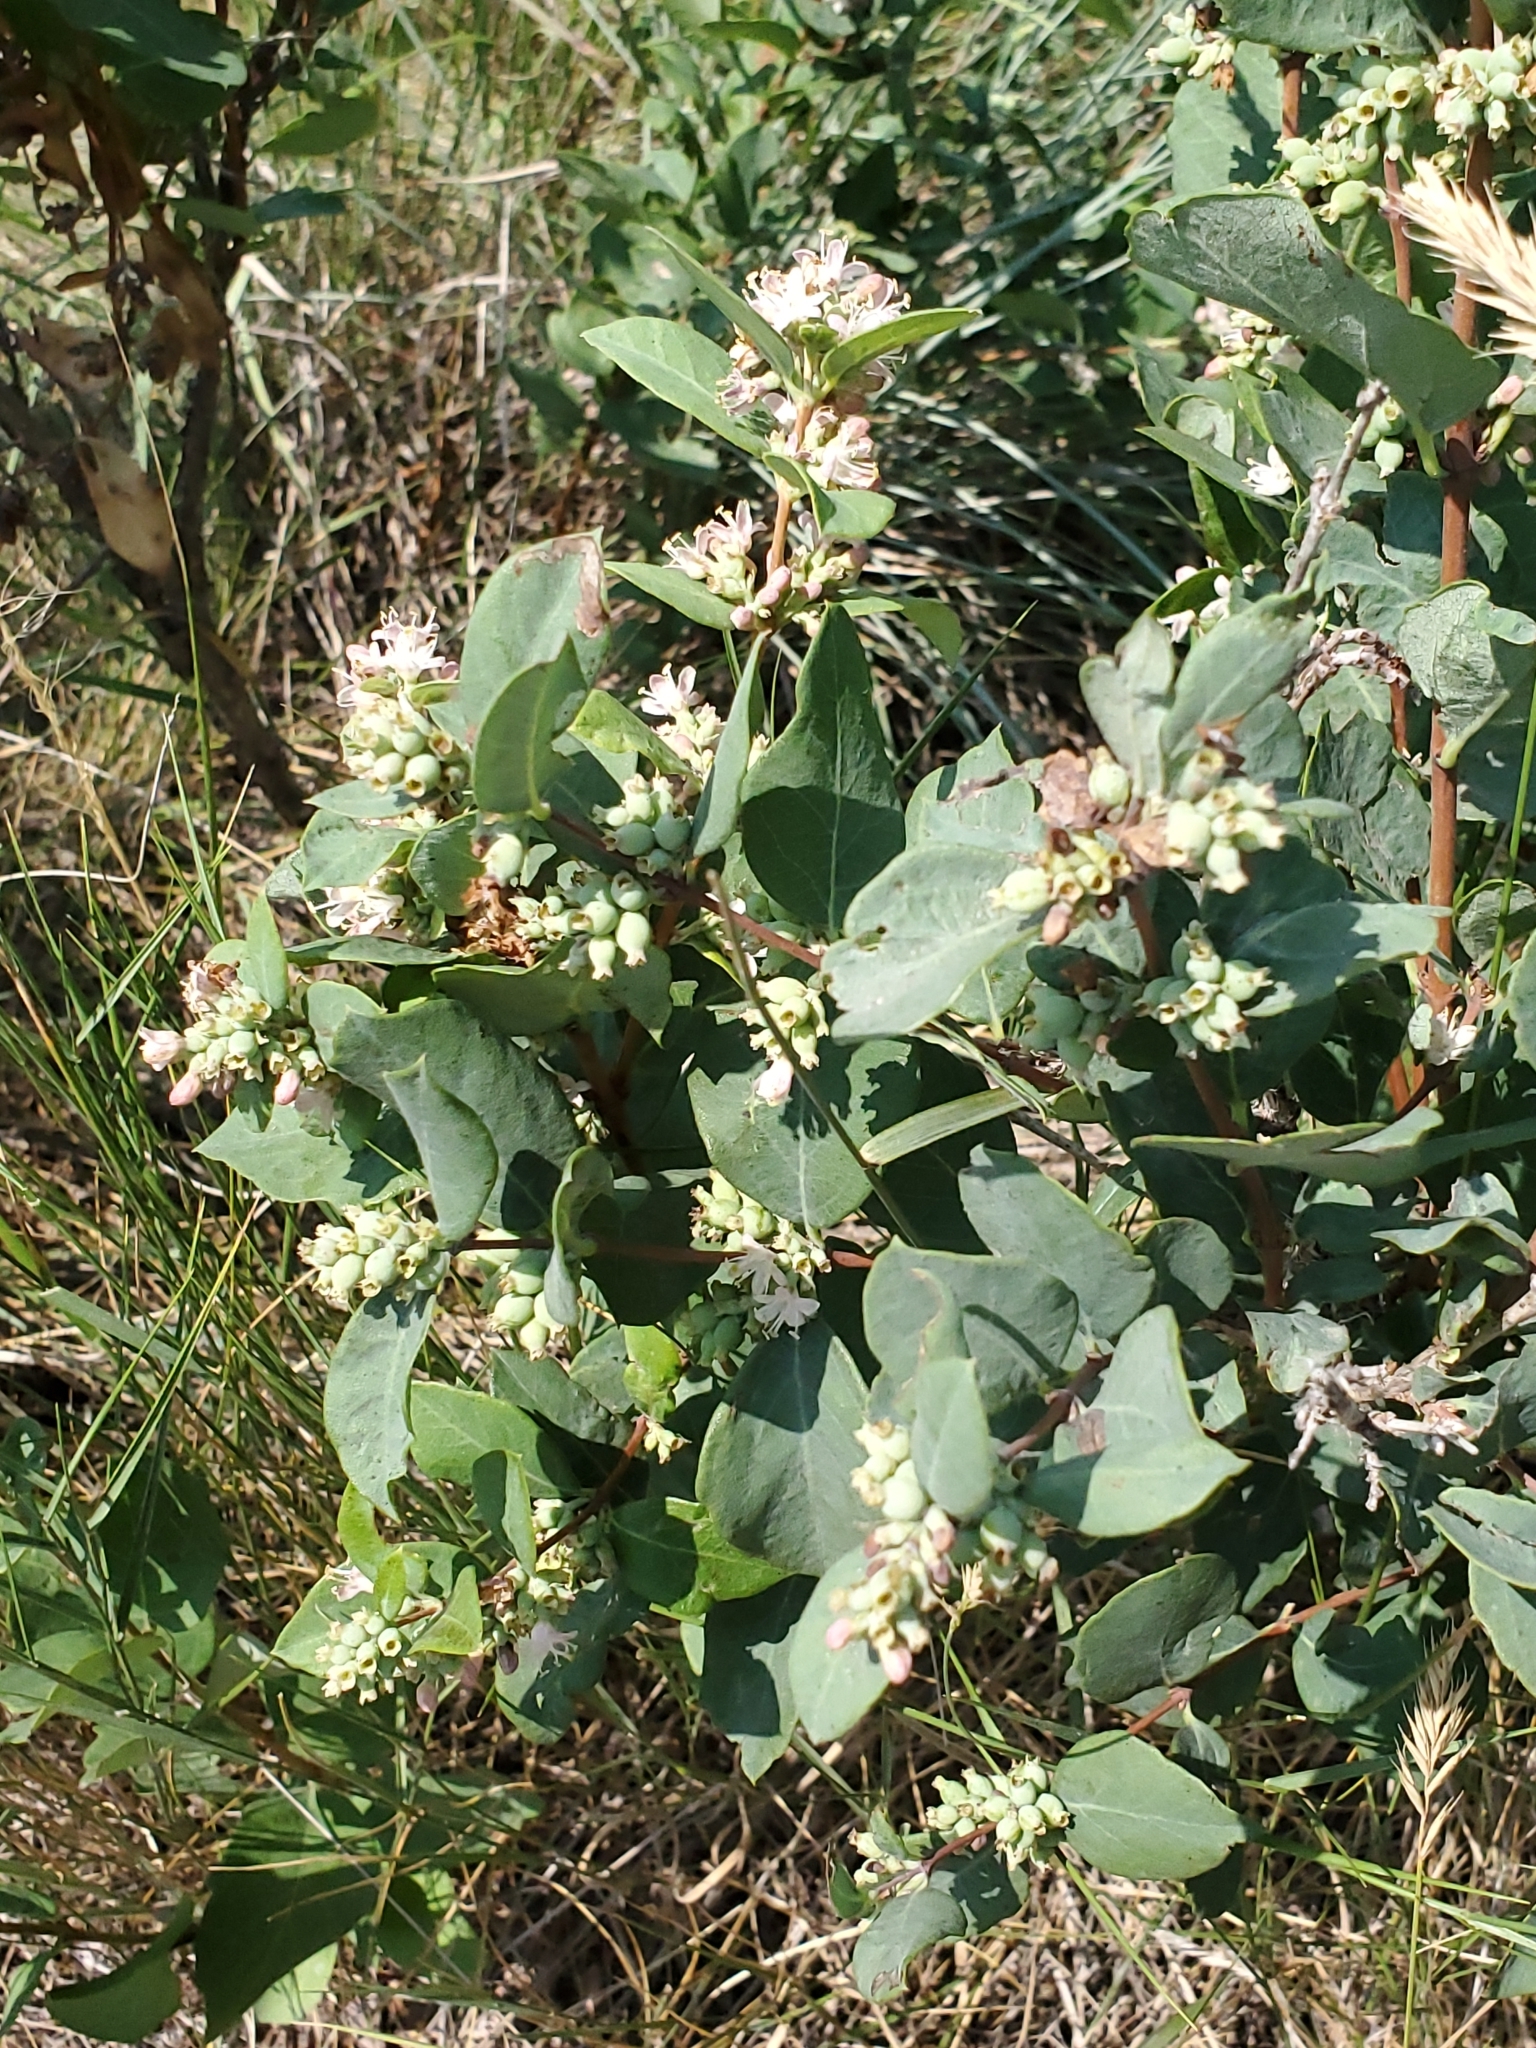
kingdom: Plantae
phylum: Tracheophyta
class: Magnoliopsida
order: Dipsacales
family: Caprifoliaceae
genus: Symphoricarpos
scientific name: Symphoricarpos occidentalis
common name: Wolfberry
